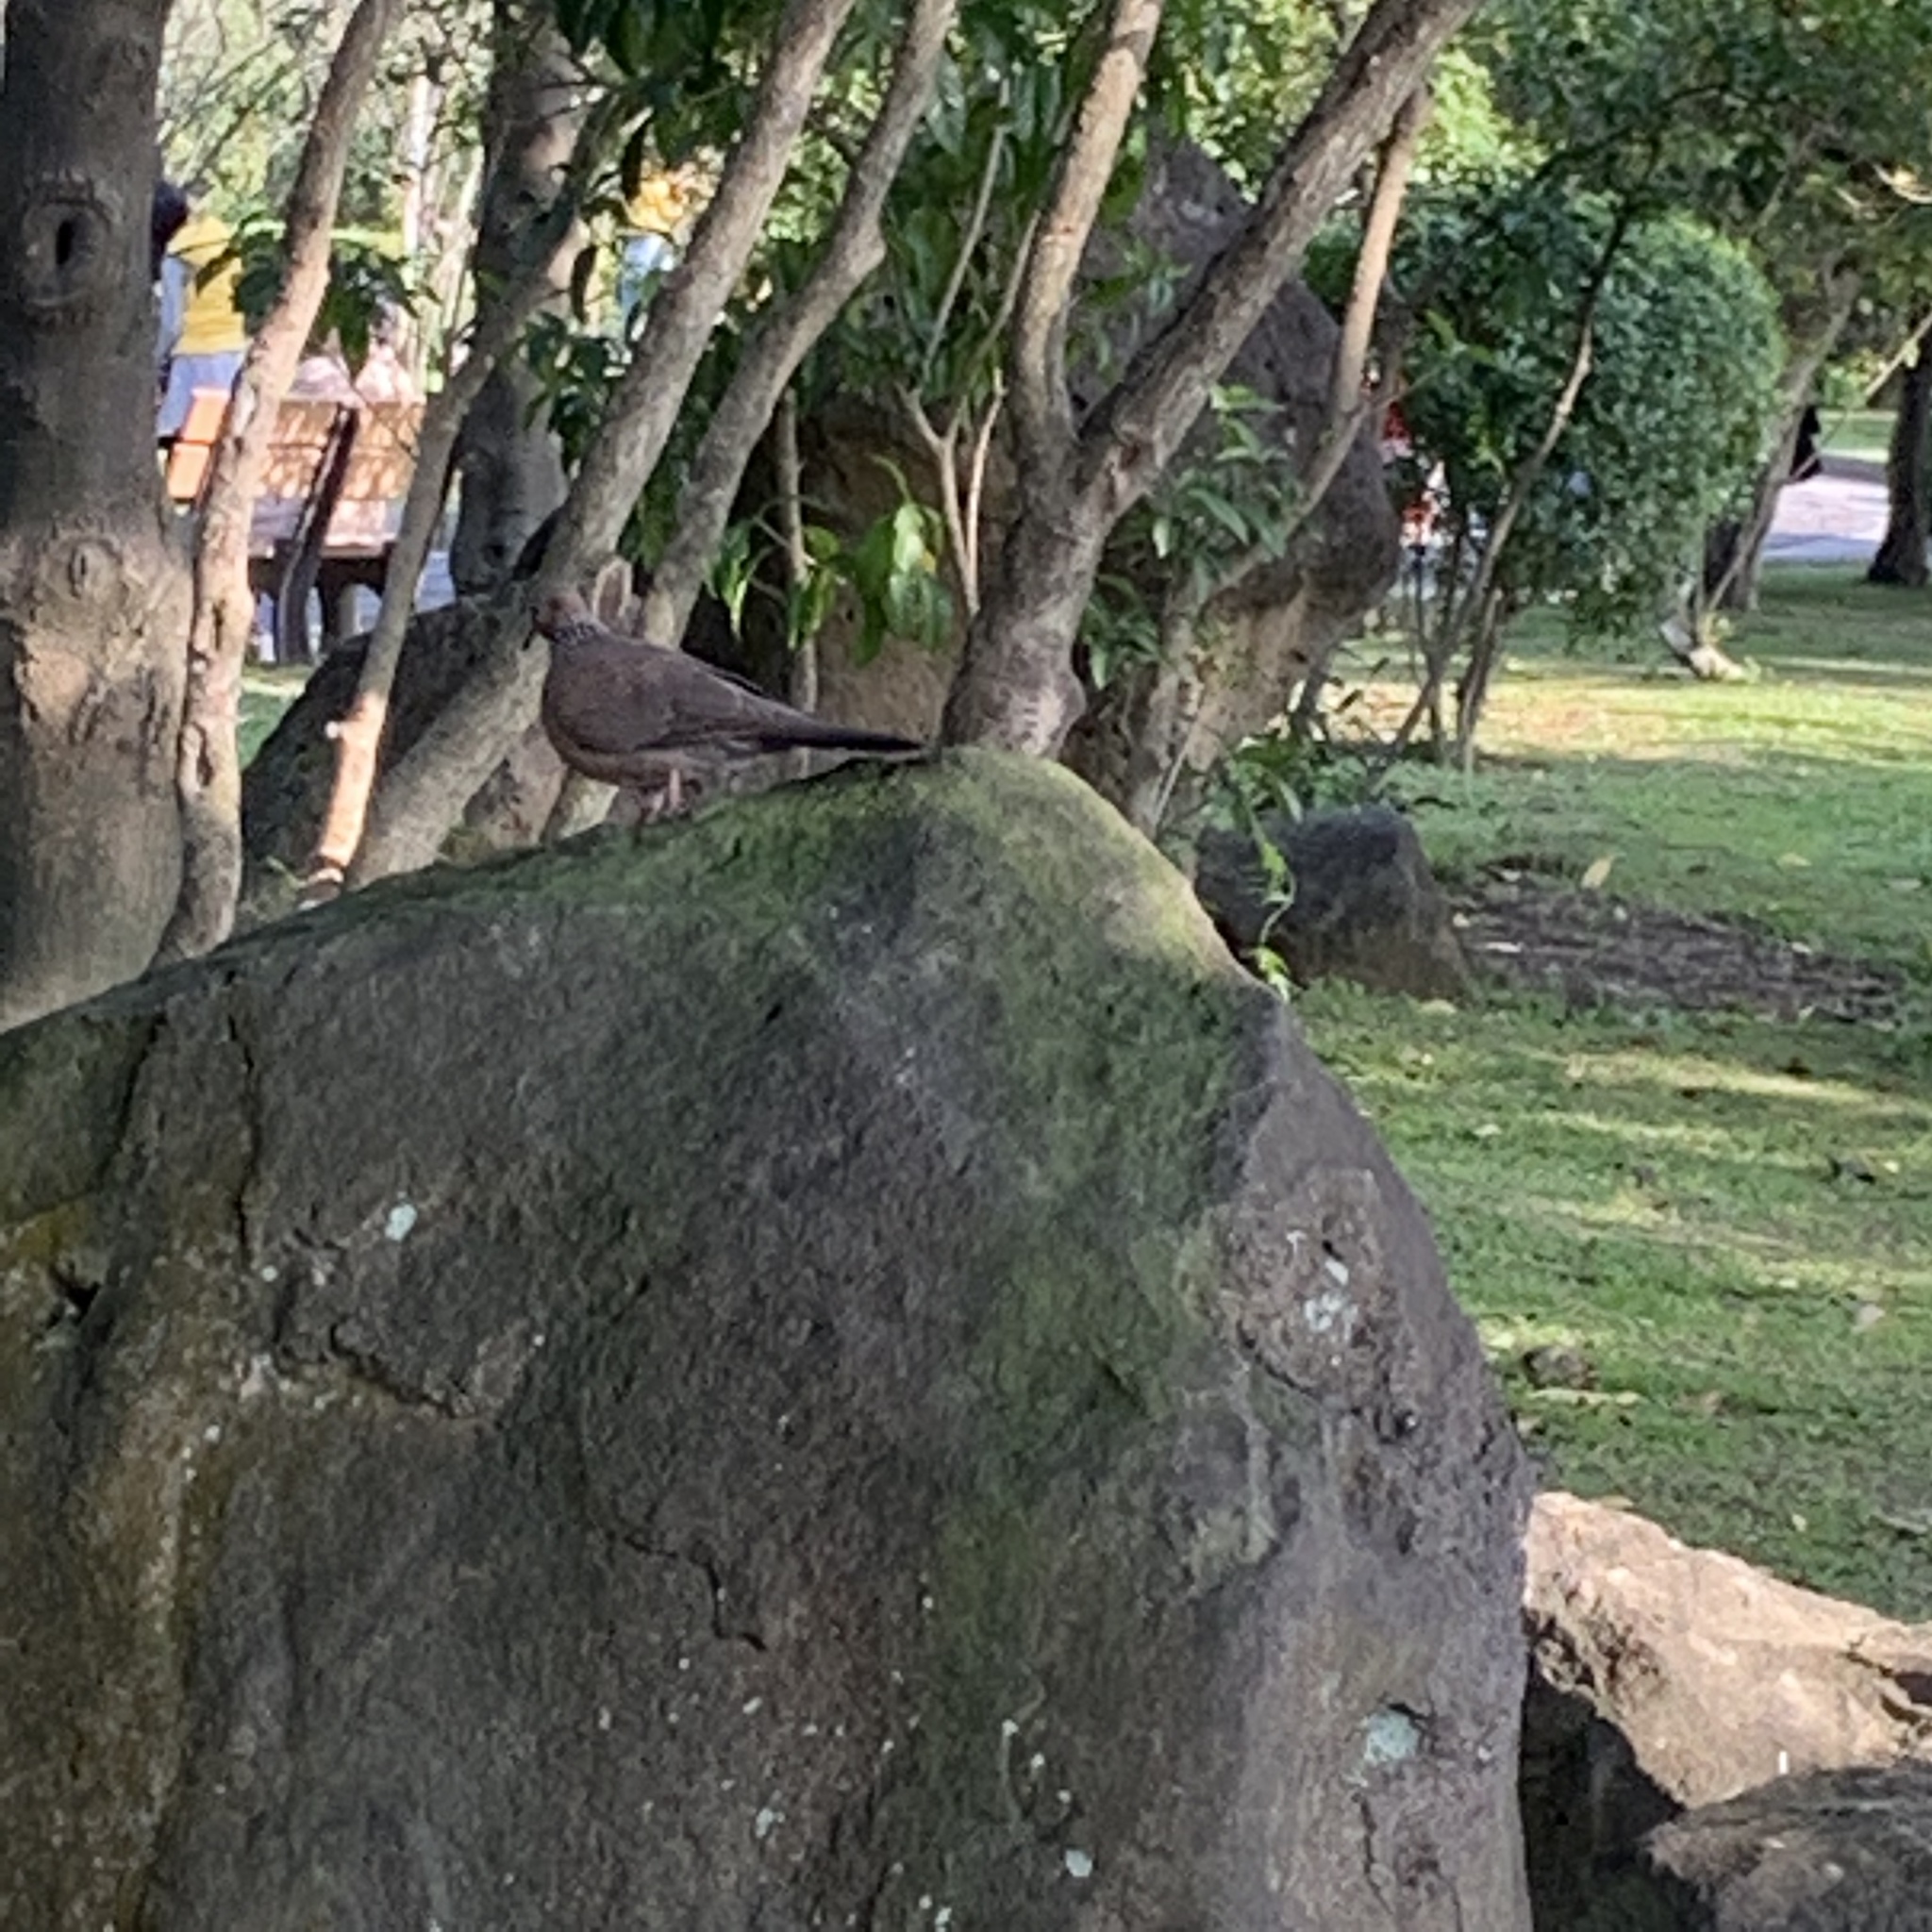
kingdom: Animalia
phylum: Chordata
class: Aves
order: Columbiformes
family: Columbidae
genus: Spilopelia
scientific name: Spilopelia chinensis
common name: Spotted dove
